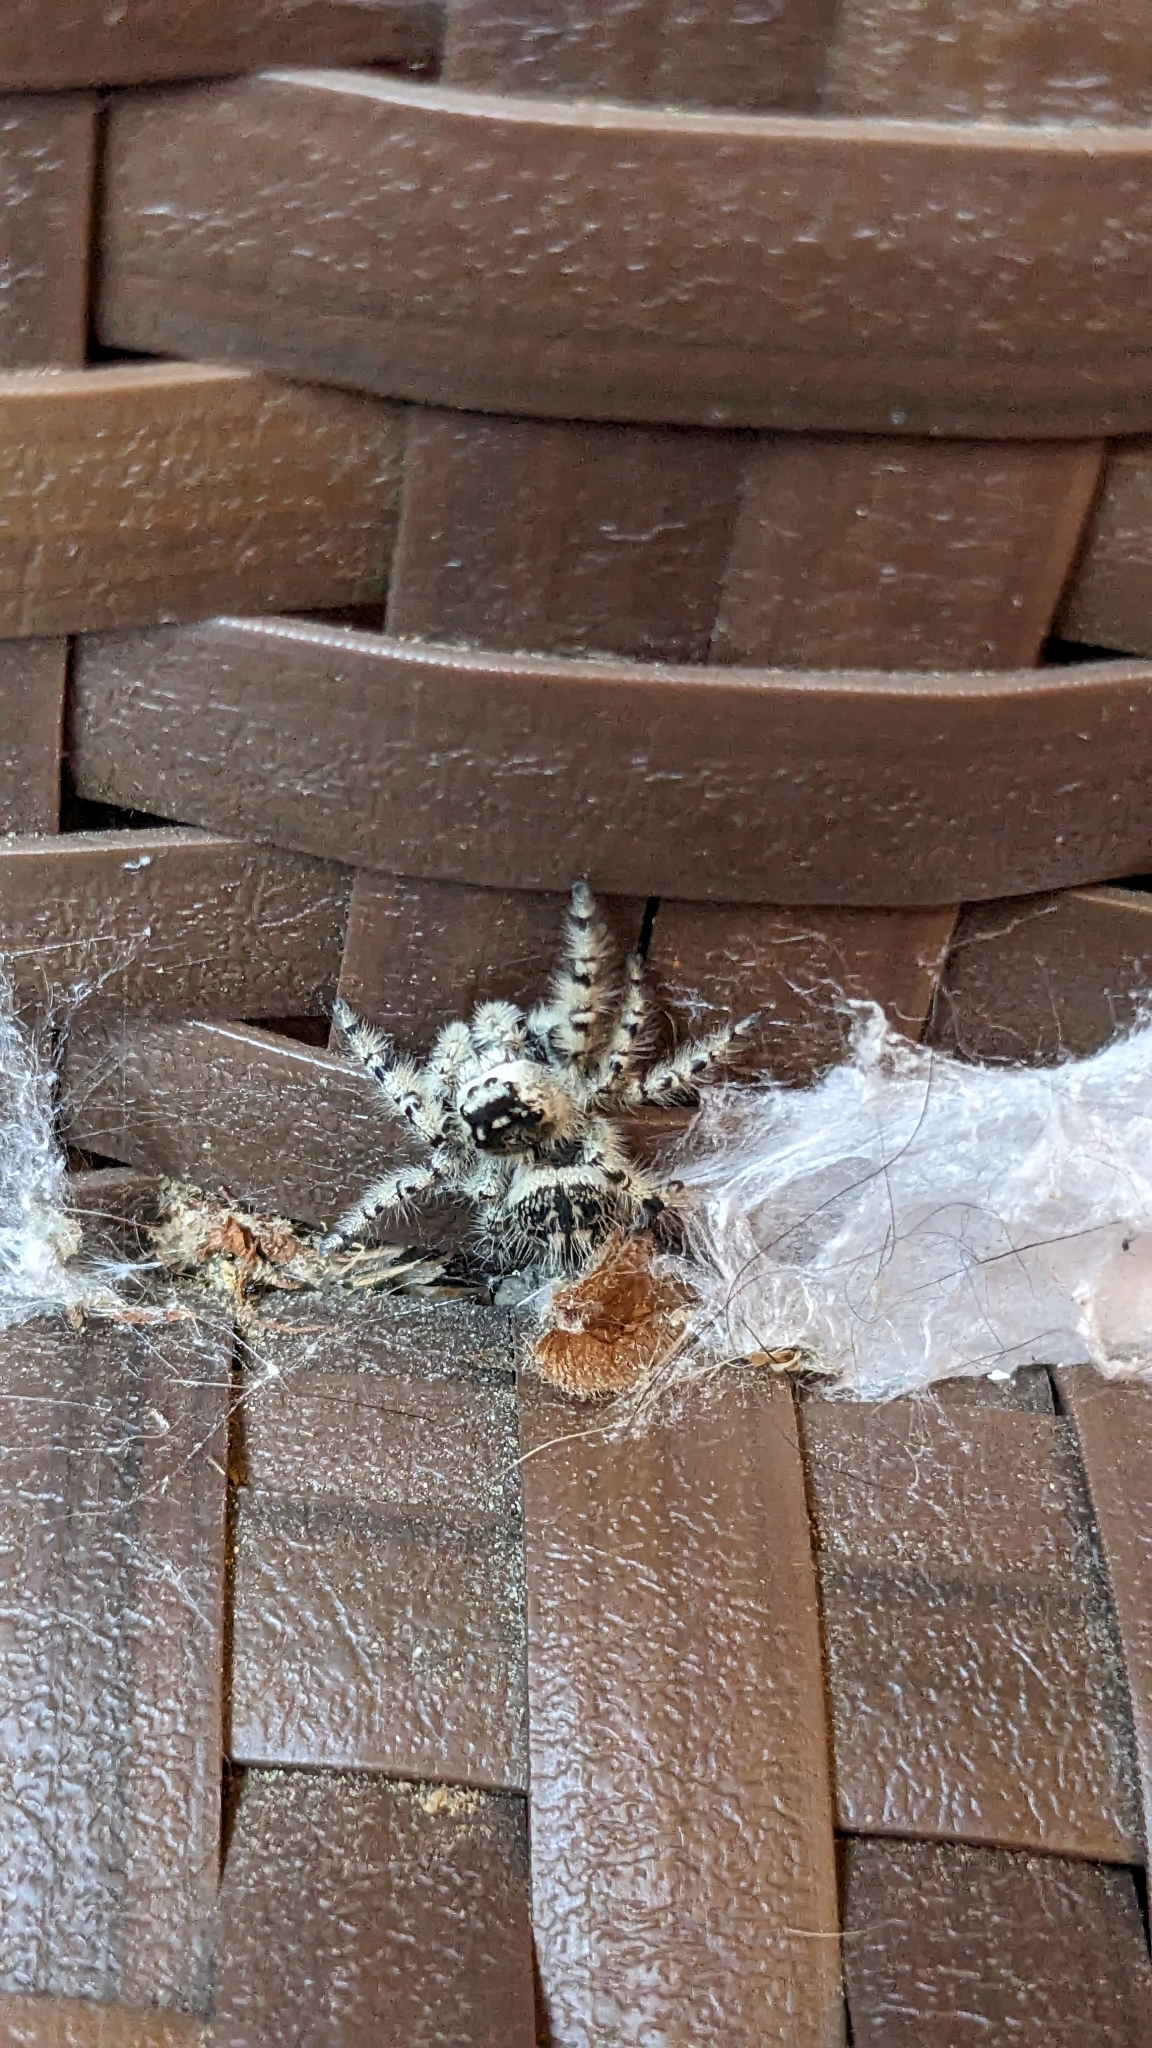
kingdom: Animalia
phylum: Arthropoda
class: Arachnida
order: Araneae
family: Salticidae
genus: Phidippus
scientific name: Phidippus otiosus
